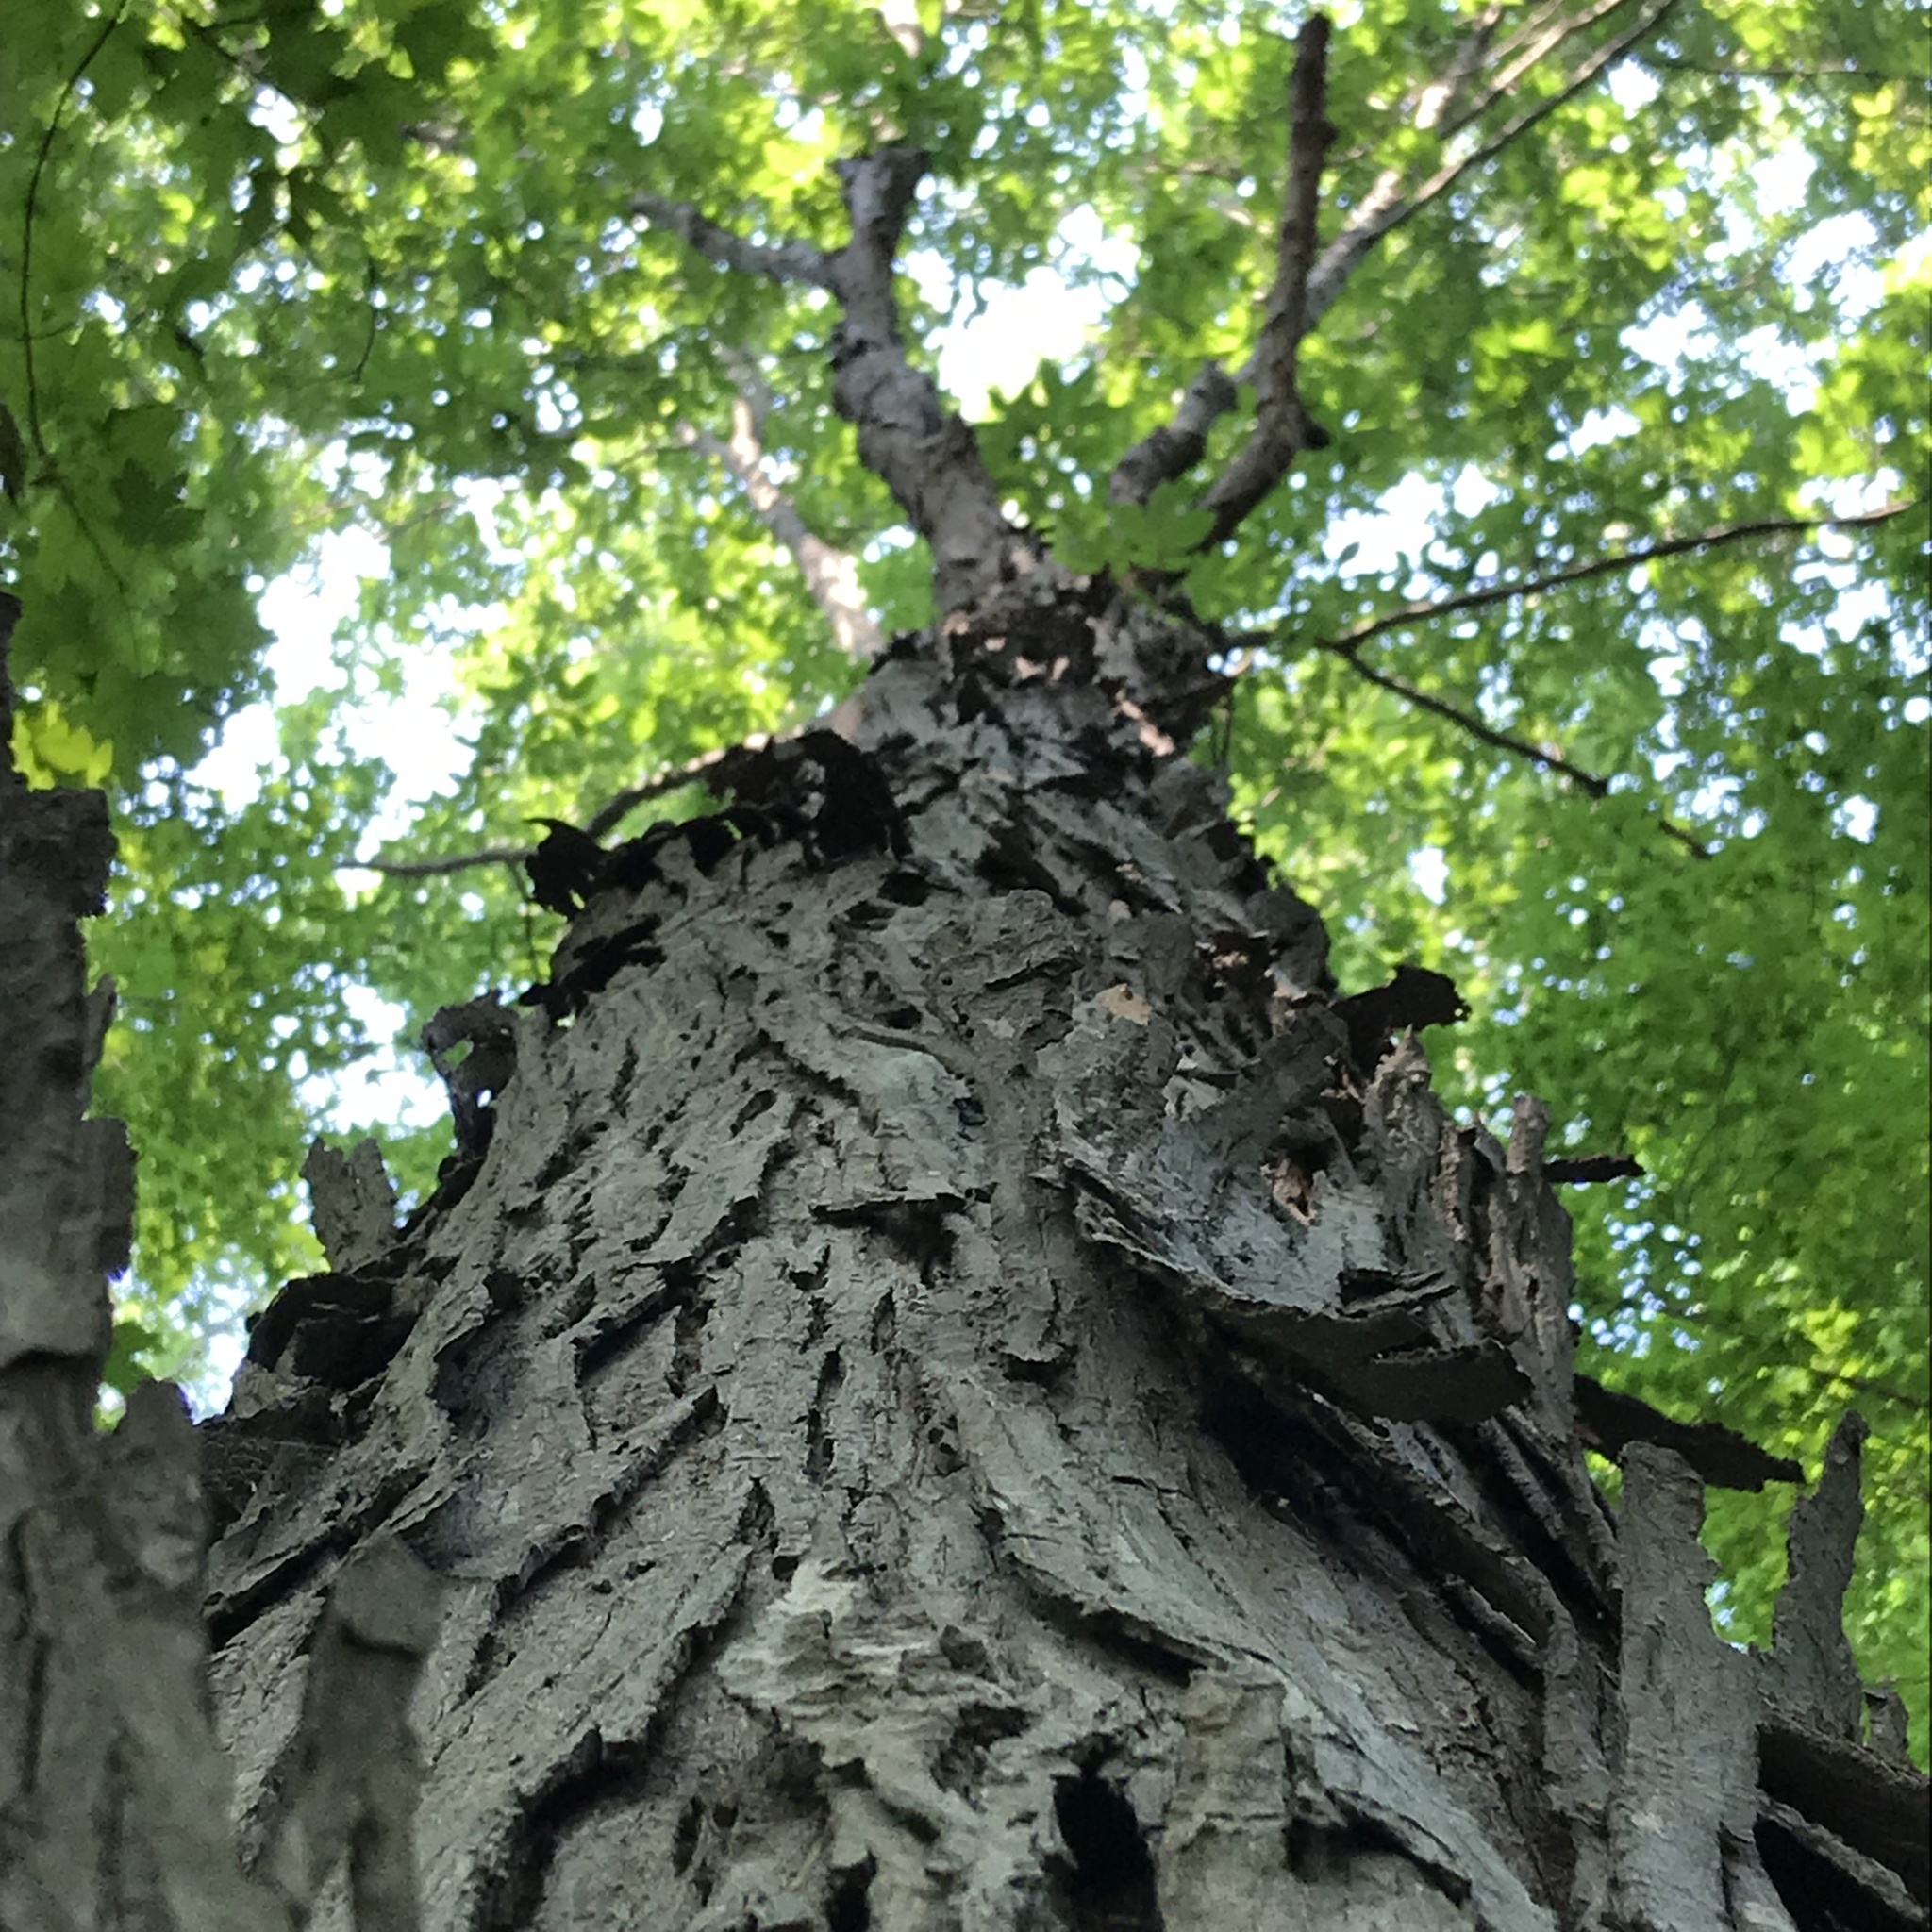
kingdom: Plantae
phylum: Tracheophyta
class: Magnoliopsida
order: Fagales
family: Juglandaceae
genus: Carya
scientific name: Carya ovata
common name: Shagbark hickory
